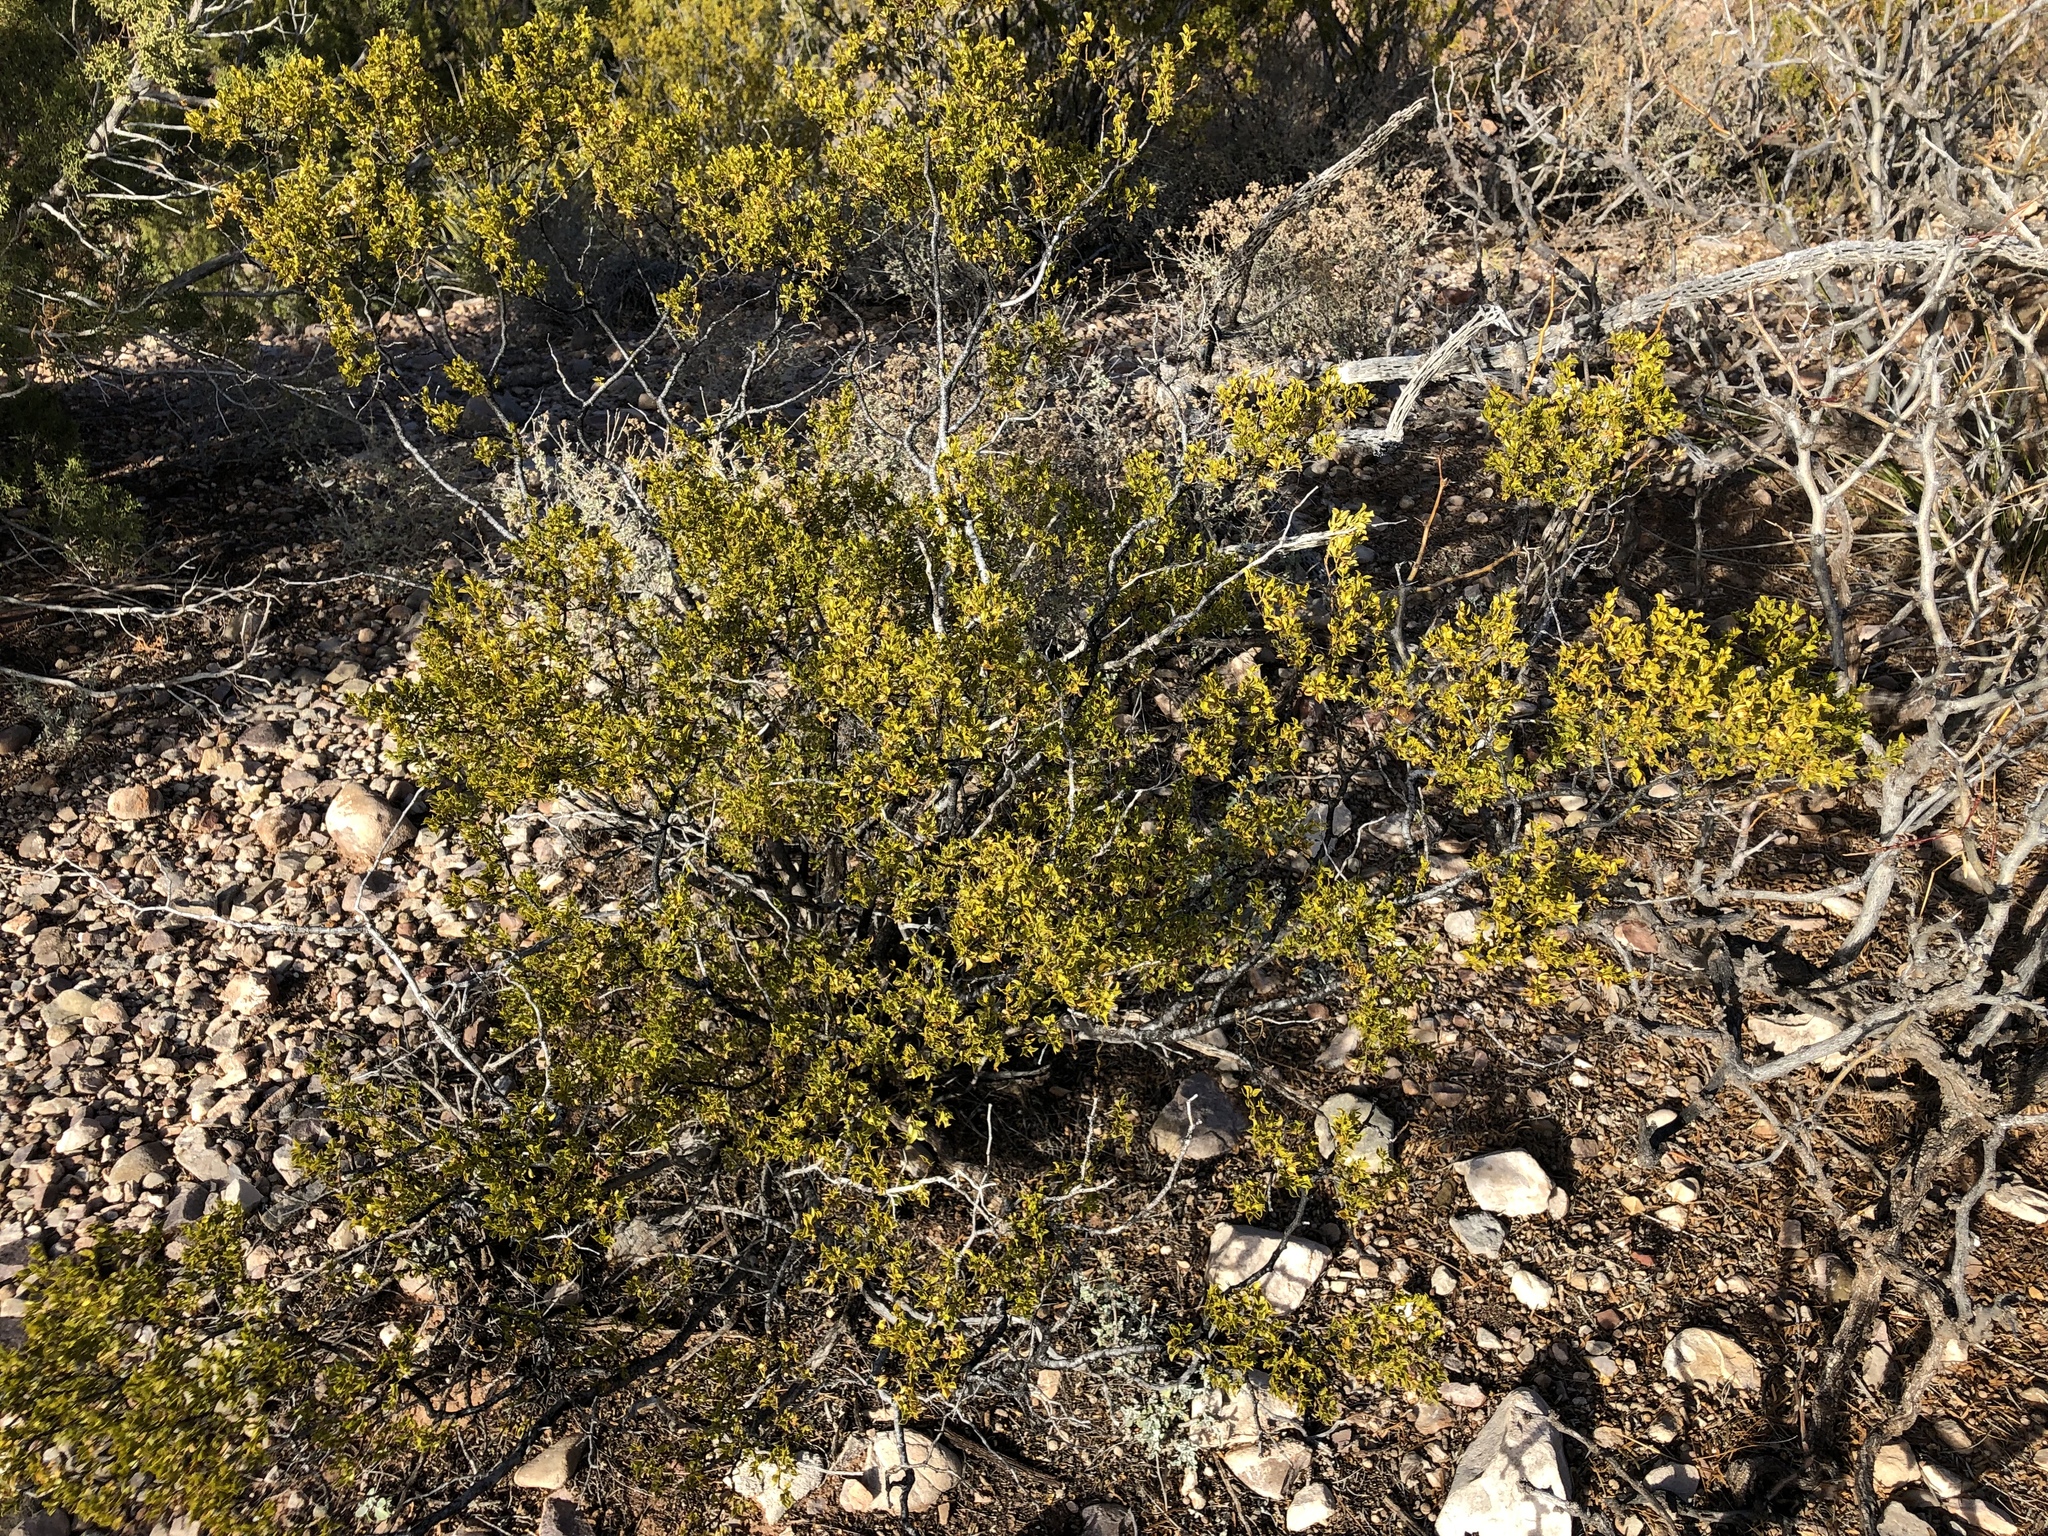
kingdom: Plantae
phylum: Tracheophyta
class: Magnoliopsida
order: Zygophyllales
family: Zygophyllaceae
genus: Larrea
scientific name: Larrea tridentata
